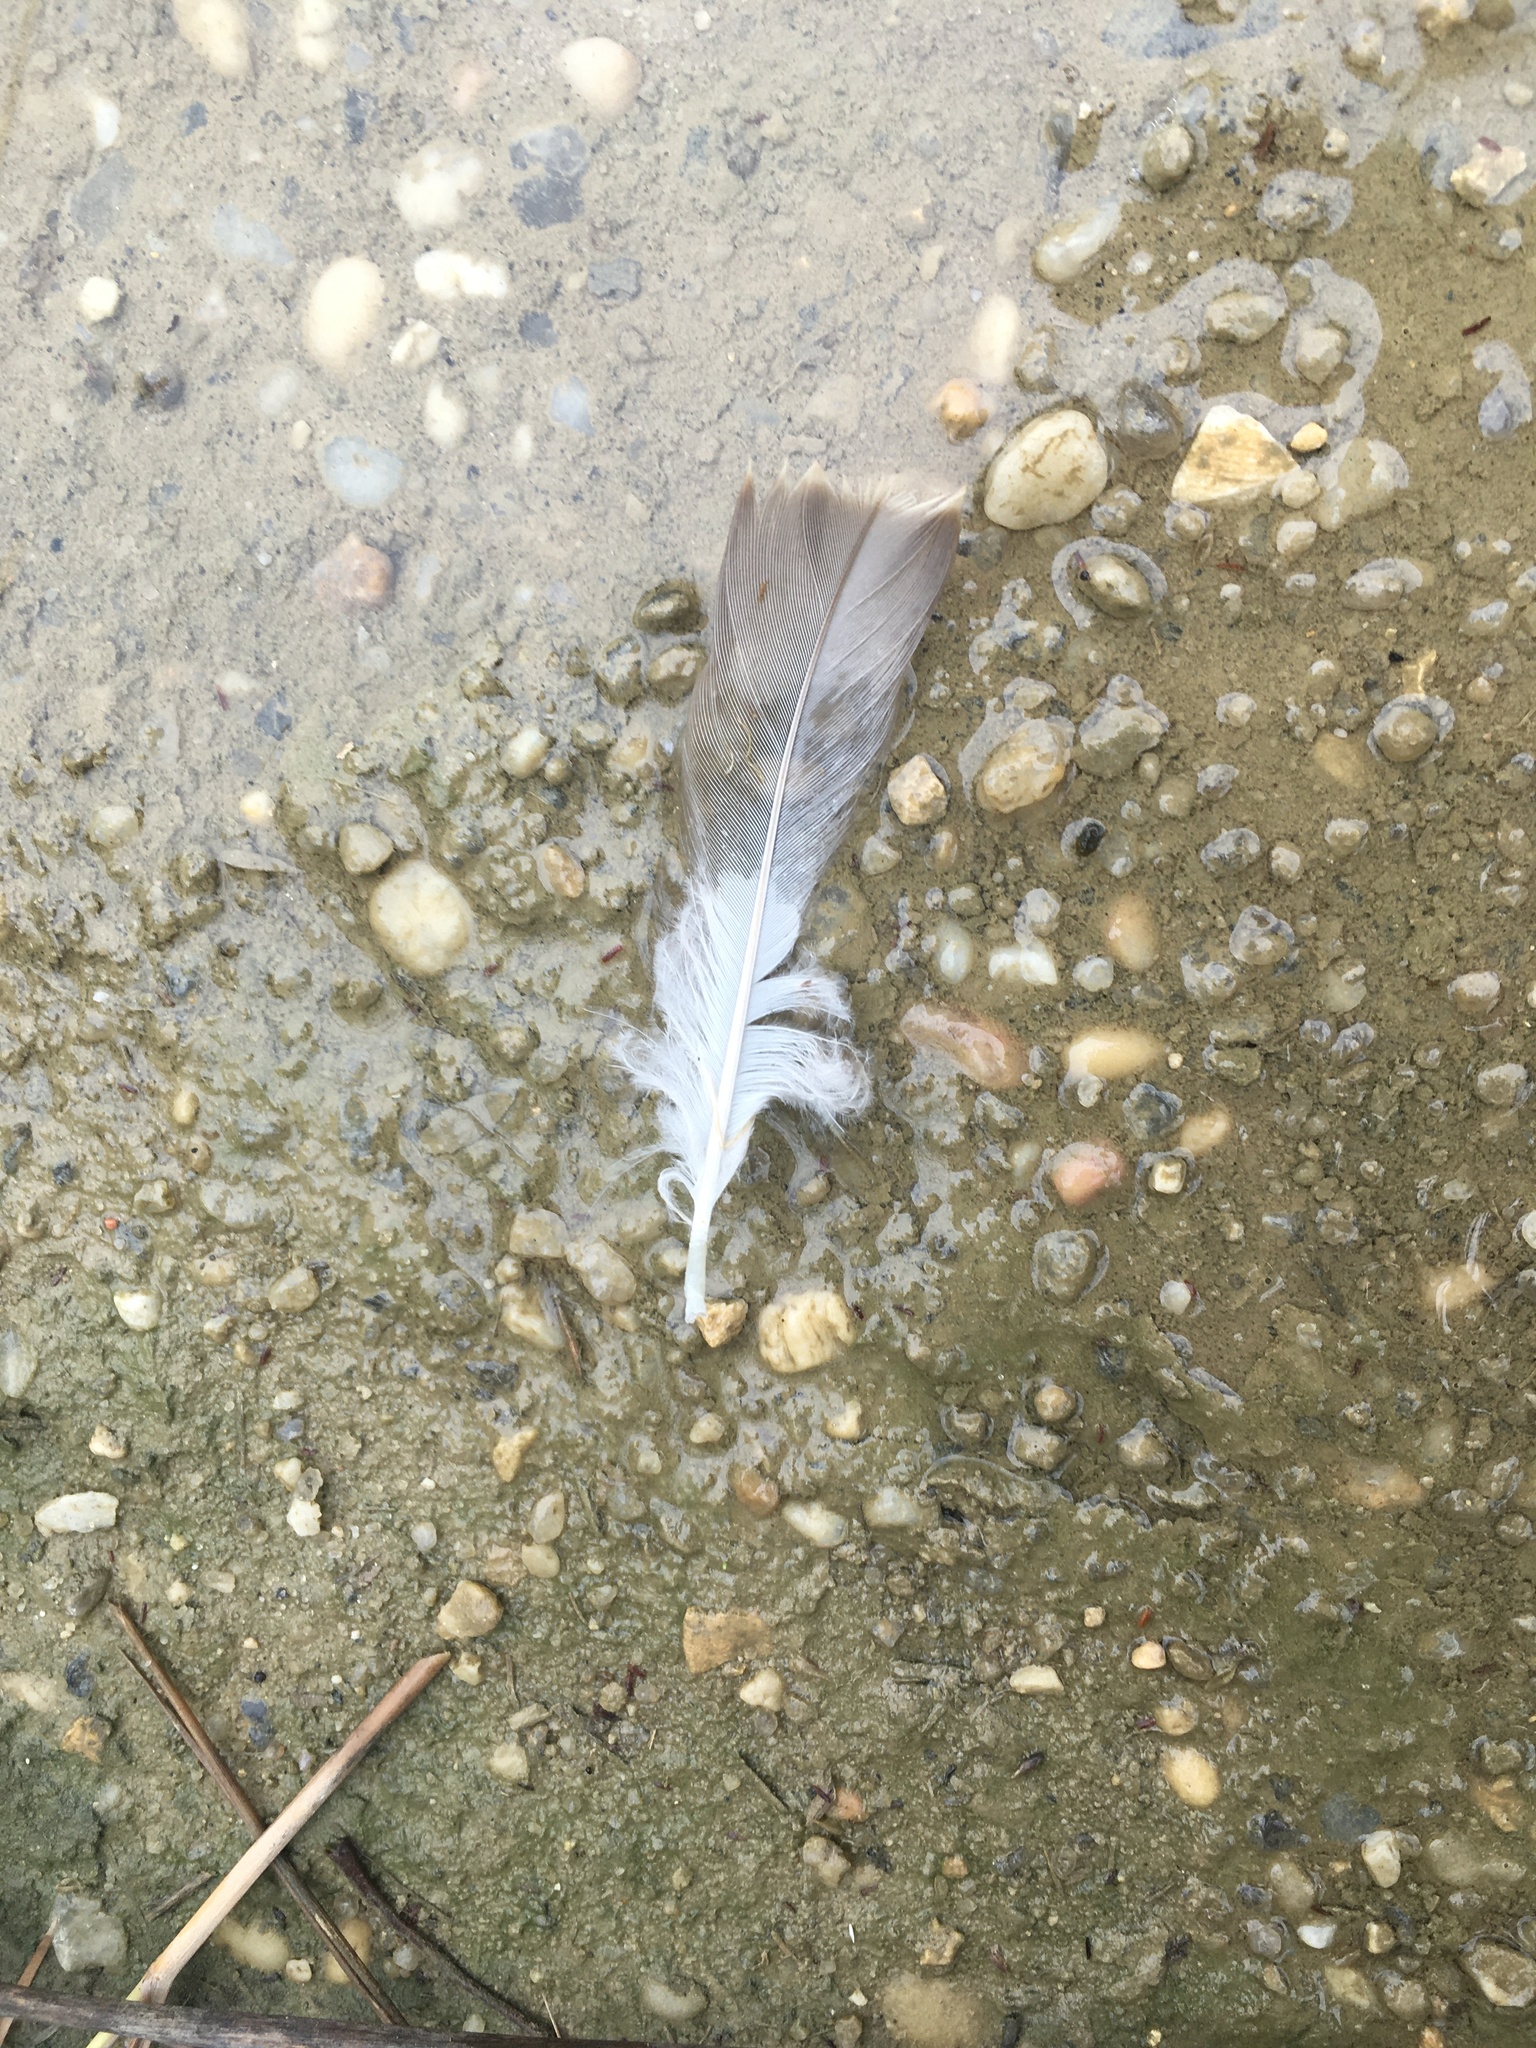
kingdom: Animalia
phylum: Chordata
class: Aves
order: Anseriformes
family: Anatidae
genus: Branta
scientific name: Branta canadensis
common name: Canada goose
